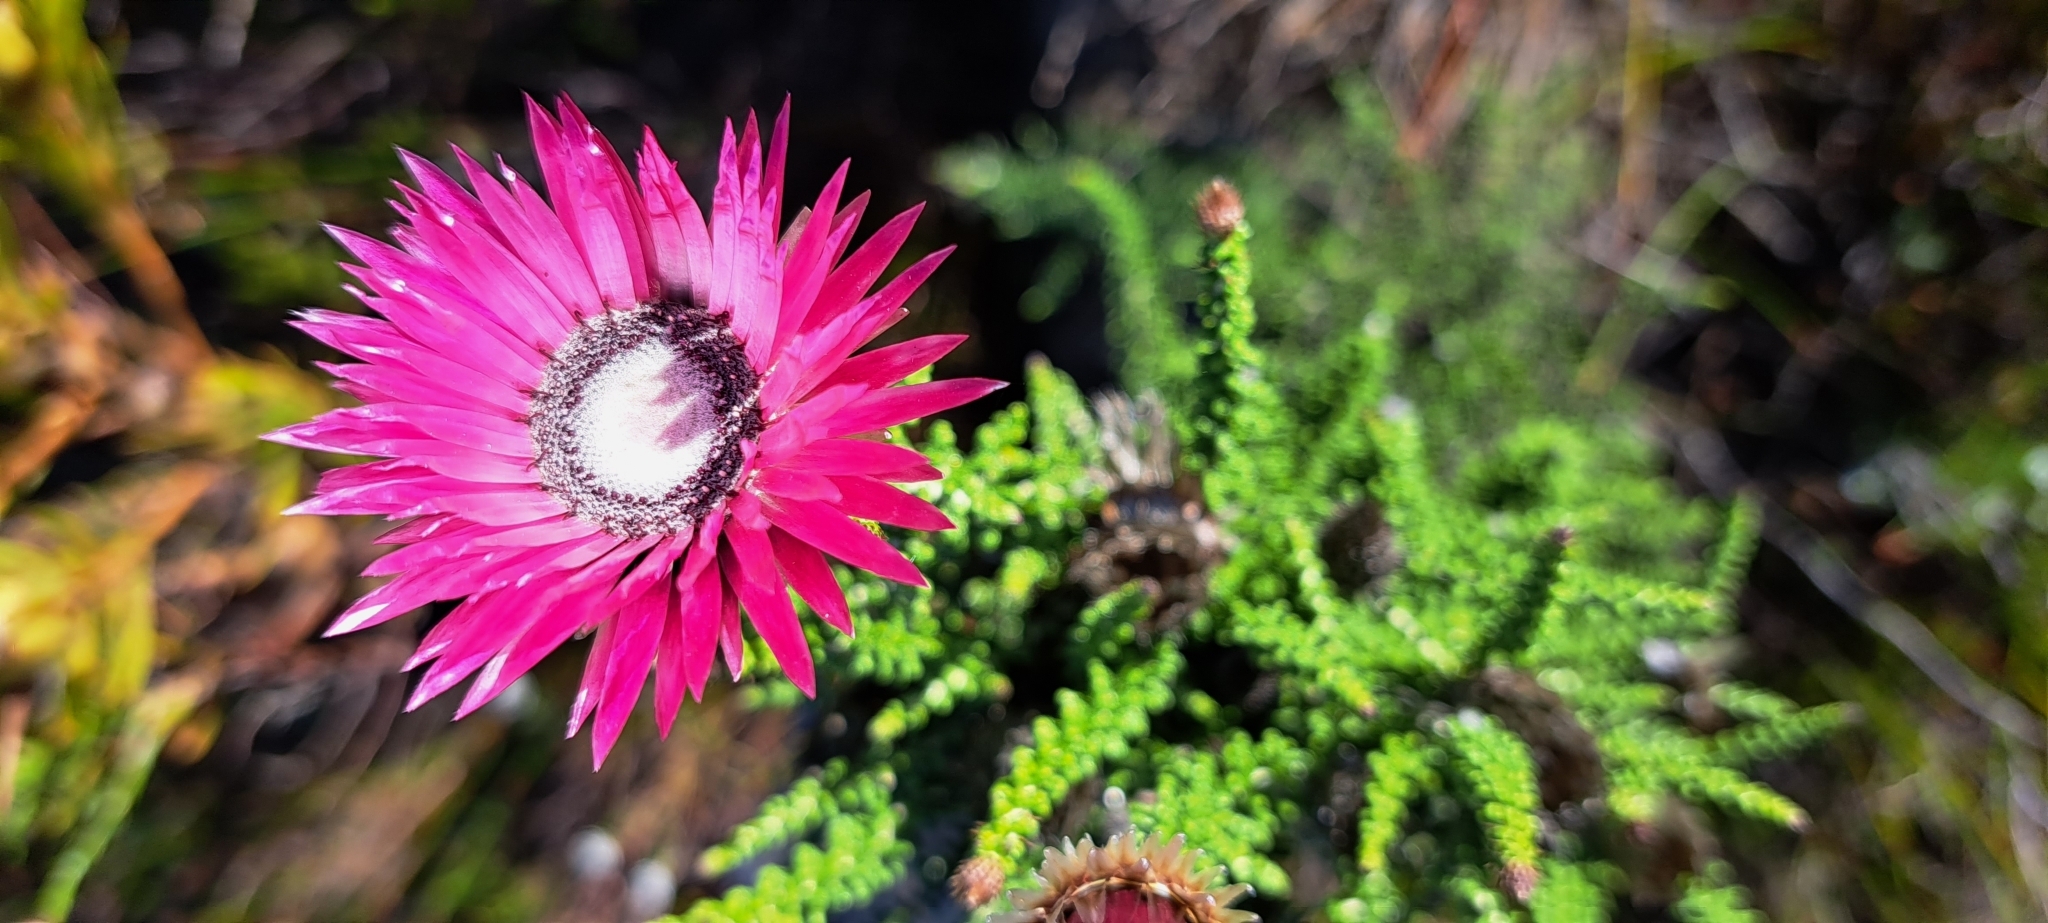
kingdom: Plantae
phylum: Tracheophyta
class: Magnoliopsida
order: Asterales
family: Asteraceae
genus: Phaenocoma
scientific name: Phaenocoma prolifera
